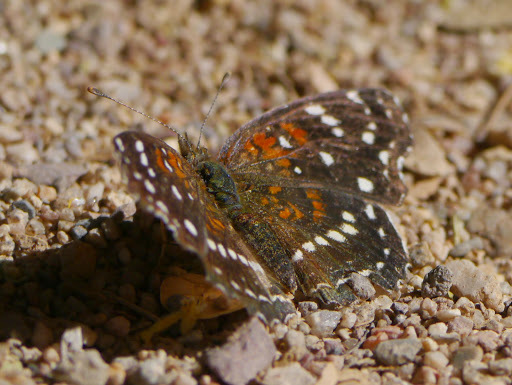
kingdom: Animalia
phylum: Arthropoda
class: Insecta
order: Lepidoptera
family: Nymphalidae
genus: Anthanassa
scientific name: Anthanassa texana
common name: Texan crescent
